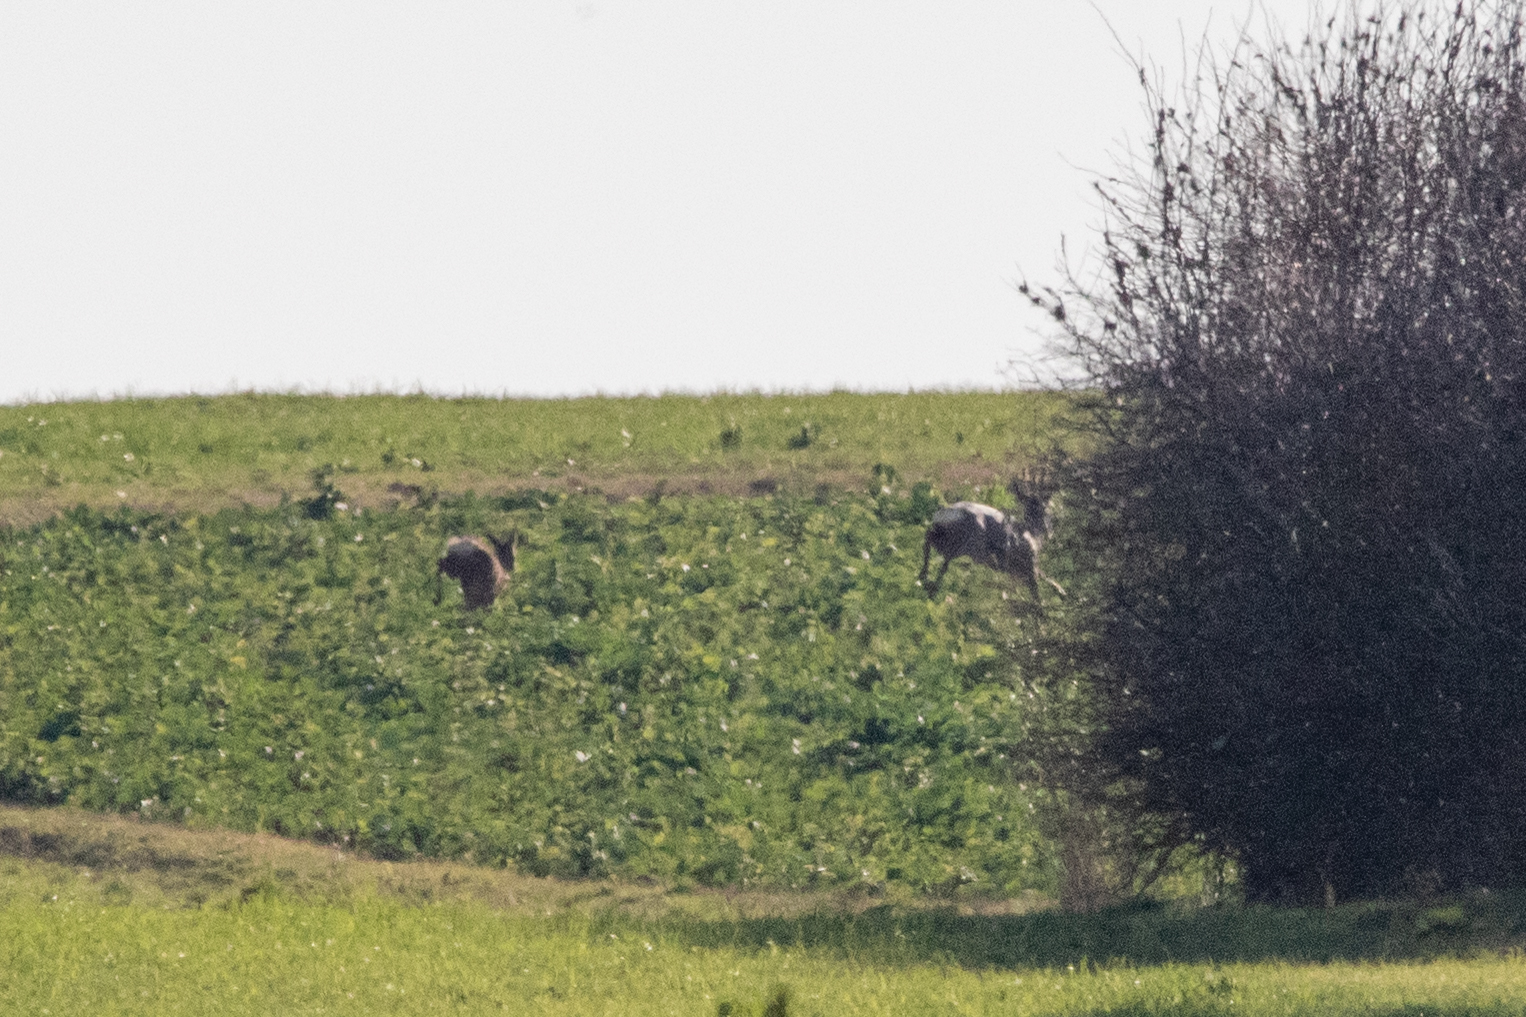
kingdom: Animalia
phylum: Chordata
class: Mammalia
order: Artiodactyla
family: Cervidae
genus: Capreolus
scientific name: Capreolus capreolus
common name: Western roe deer
